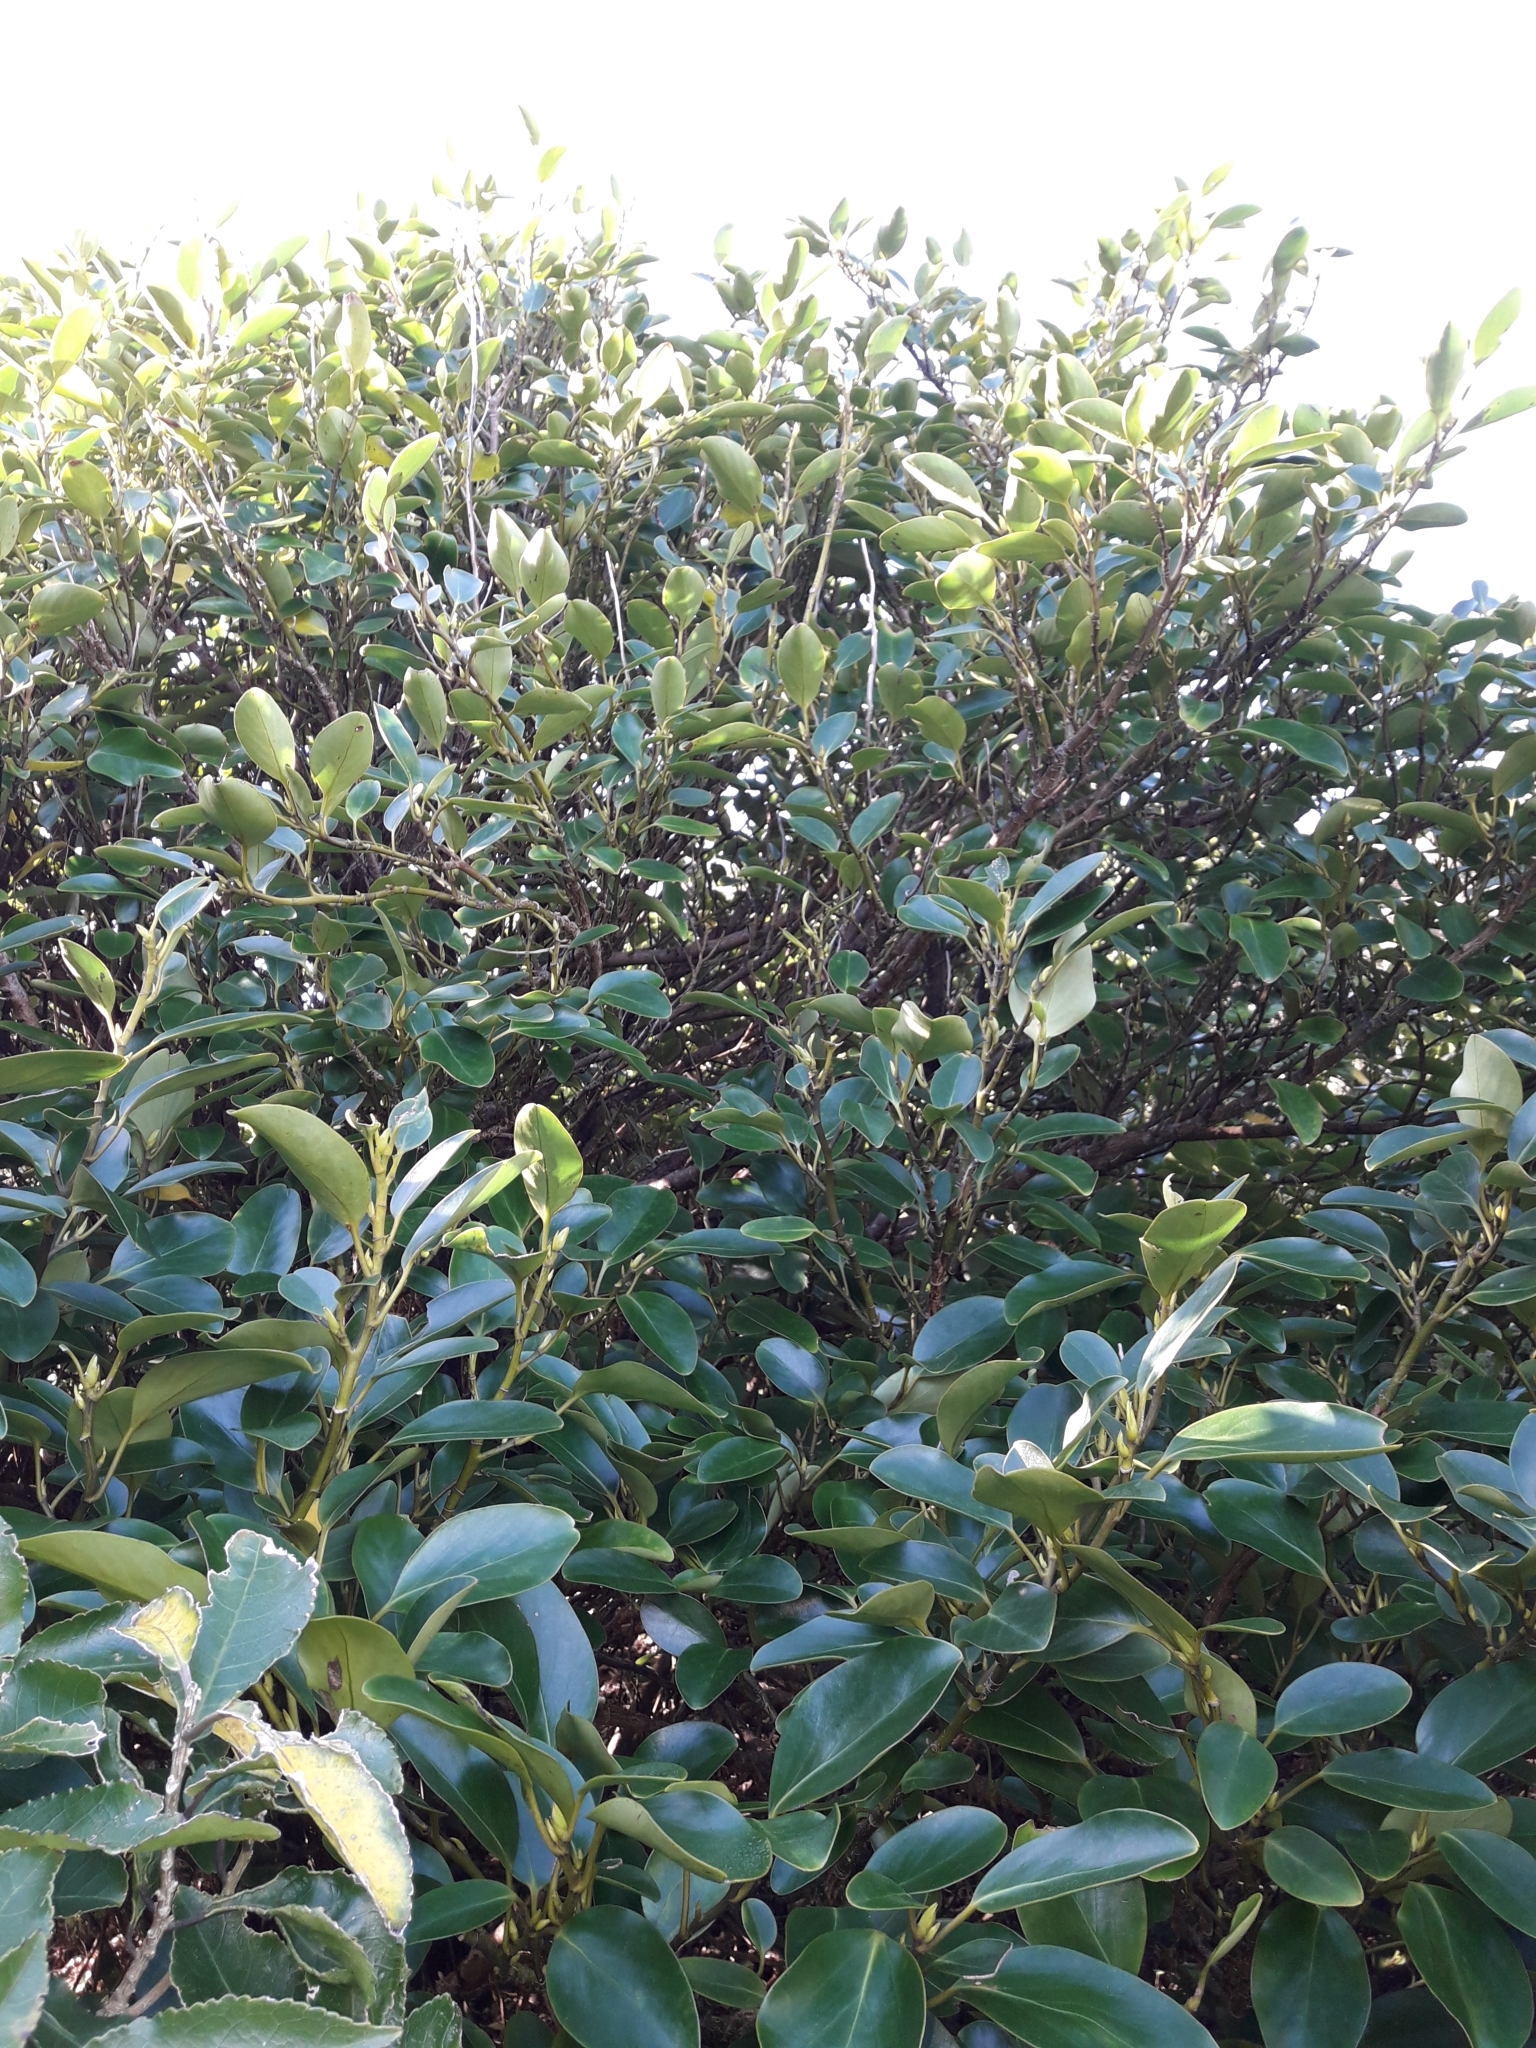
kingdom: Plantae
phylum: Tracheophyta
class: Magnoliopsida
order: Apiales
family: Griseliniaceae
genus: Griselinia
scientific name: Griselinia littoralis
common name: New zealand broadleaf
